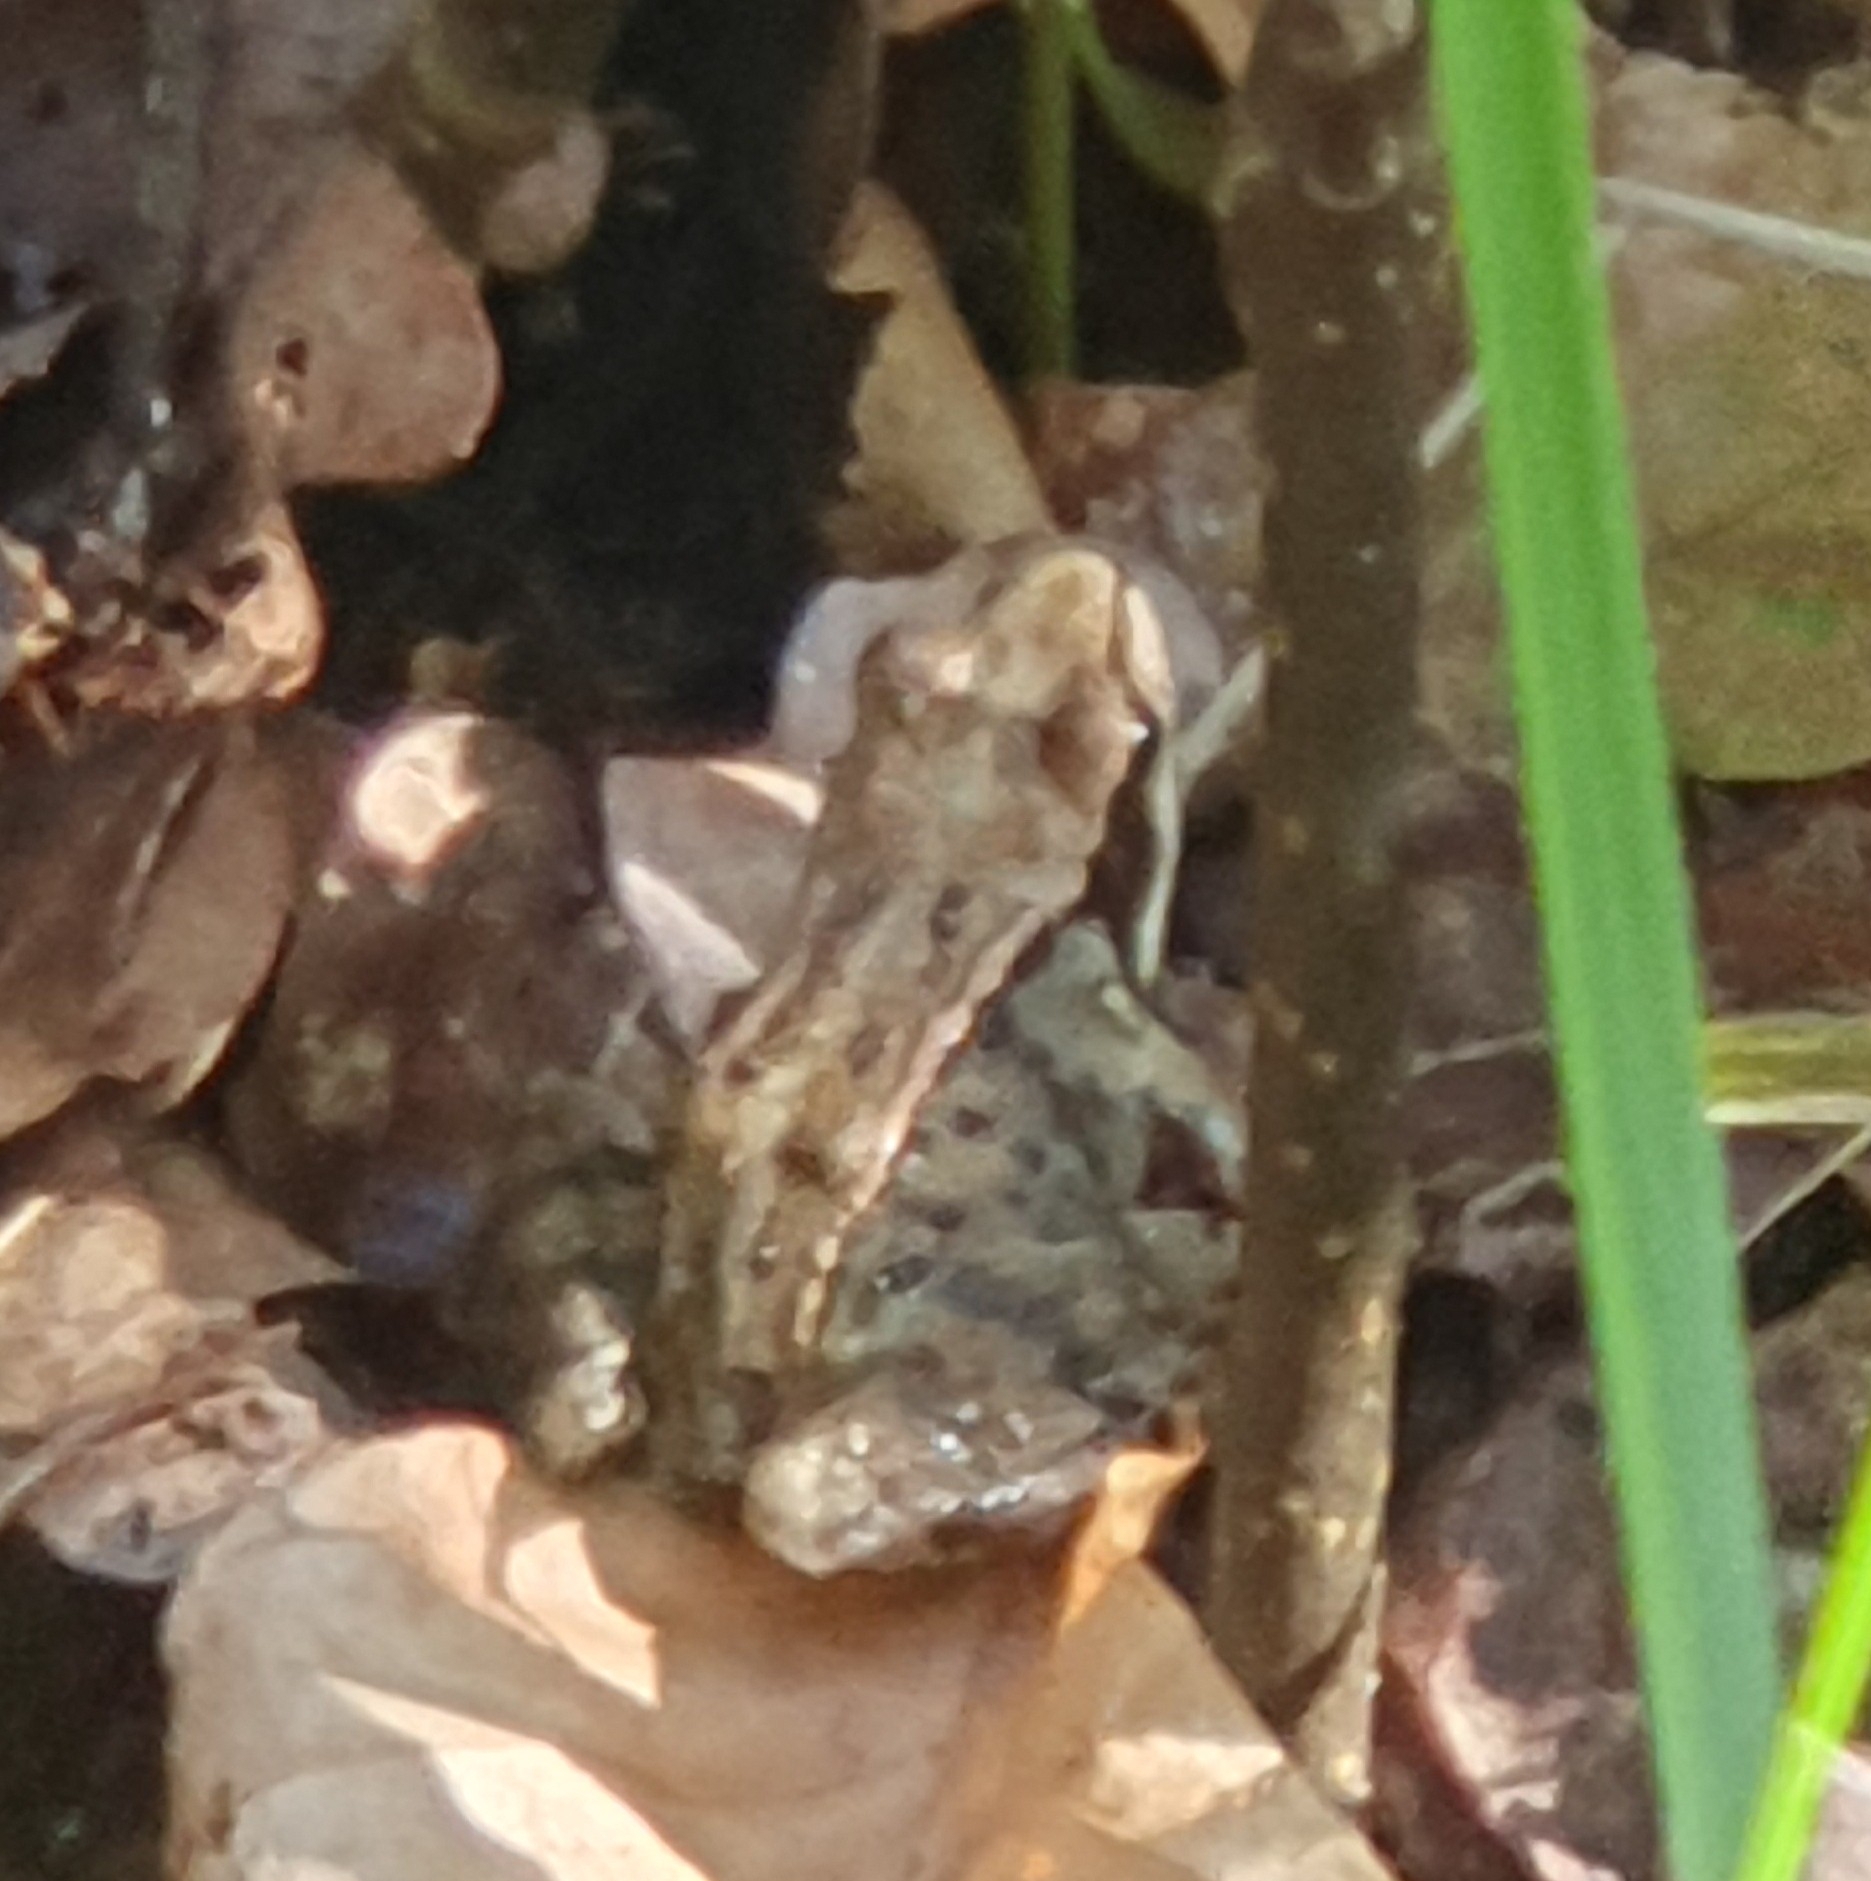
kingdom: Animalia
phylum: Chordata
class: Amphibia
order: Anura
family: Ranidae
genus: Rana
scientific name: Rana temporaria
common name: Common frog
